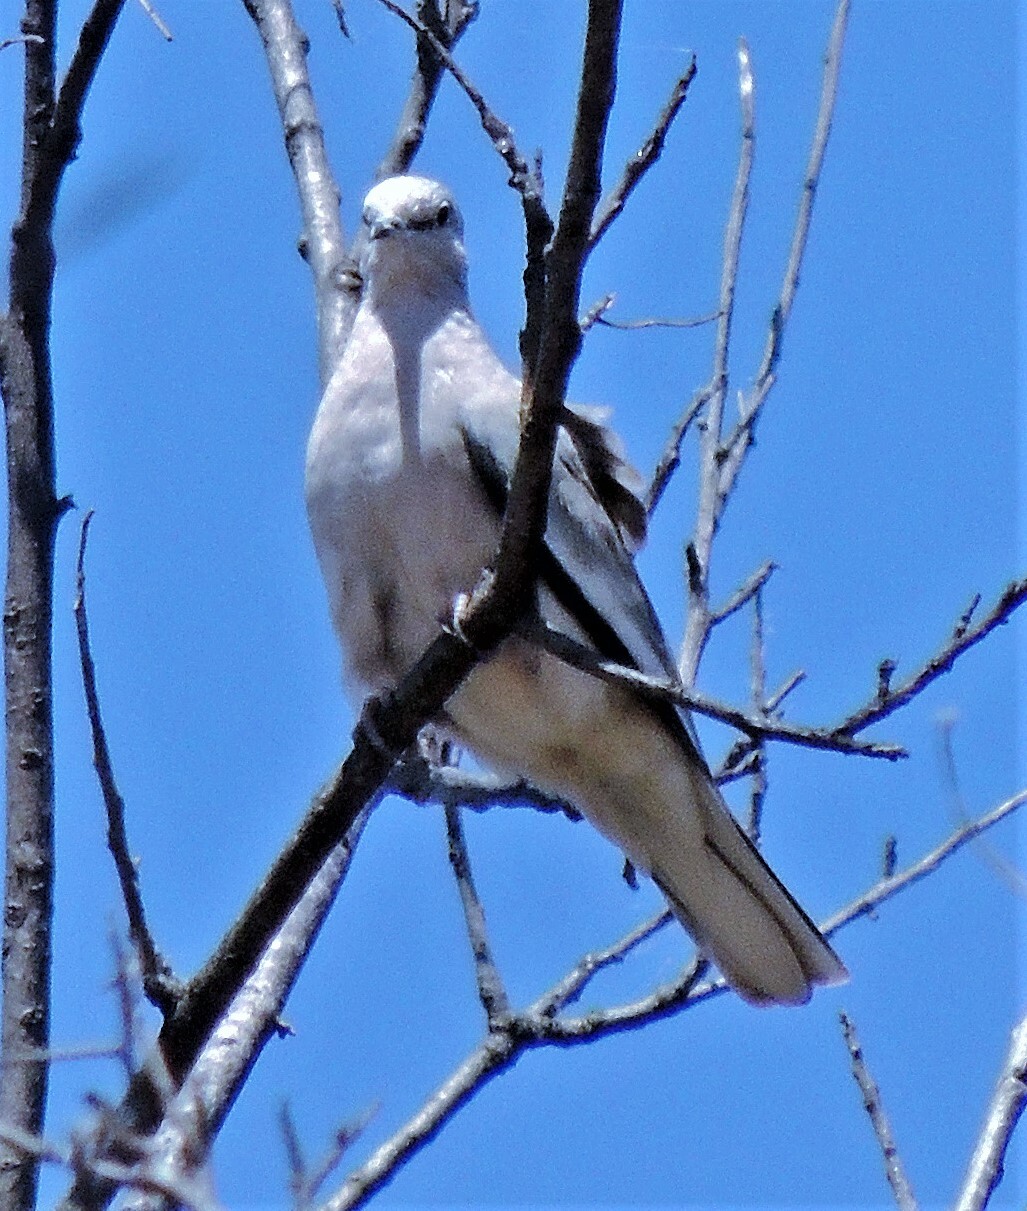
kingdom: Animalia
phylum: Chordata
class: Aves
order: Columbiformes
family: Columbidae
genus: Columbina
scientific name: Columbina picui
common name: Picui ground dove
